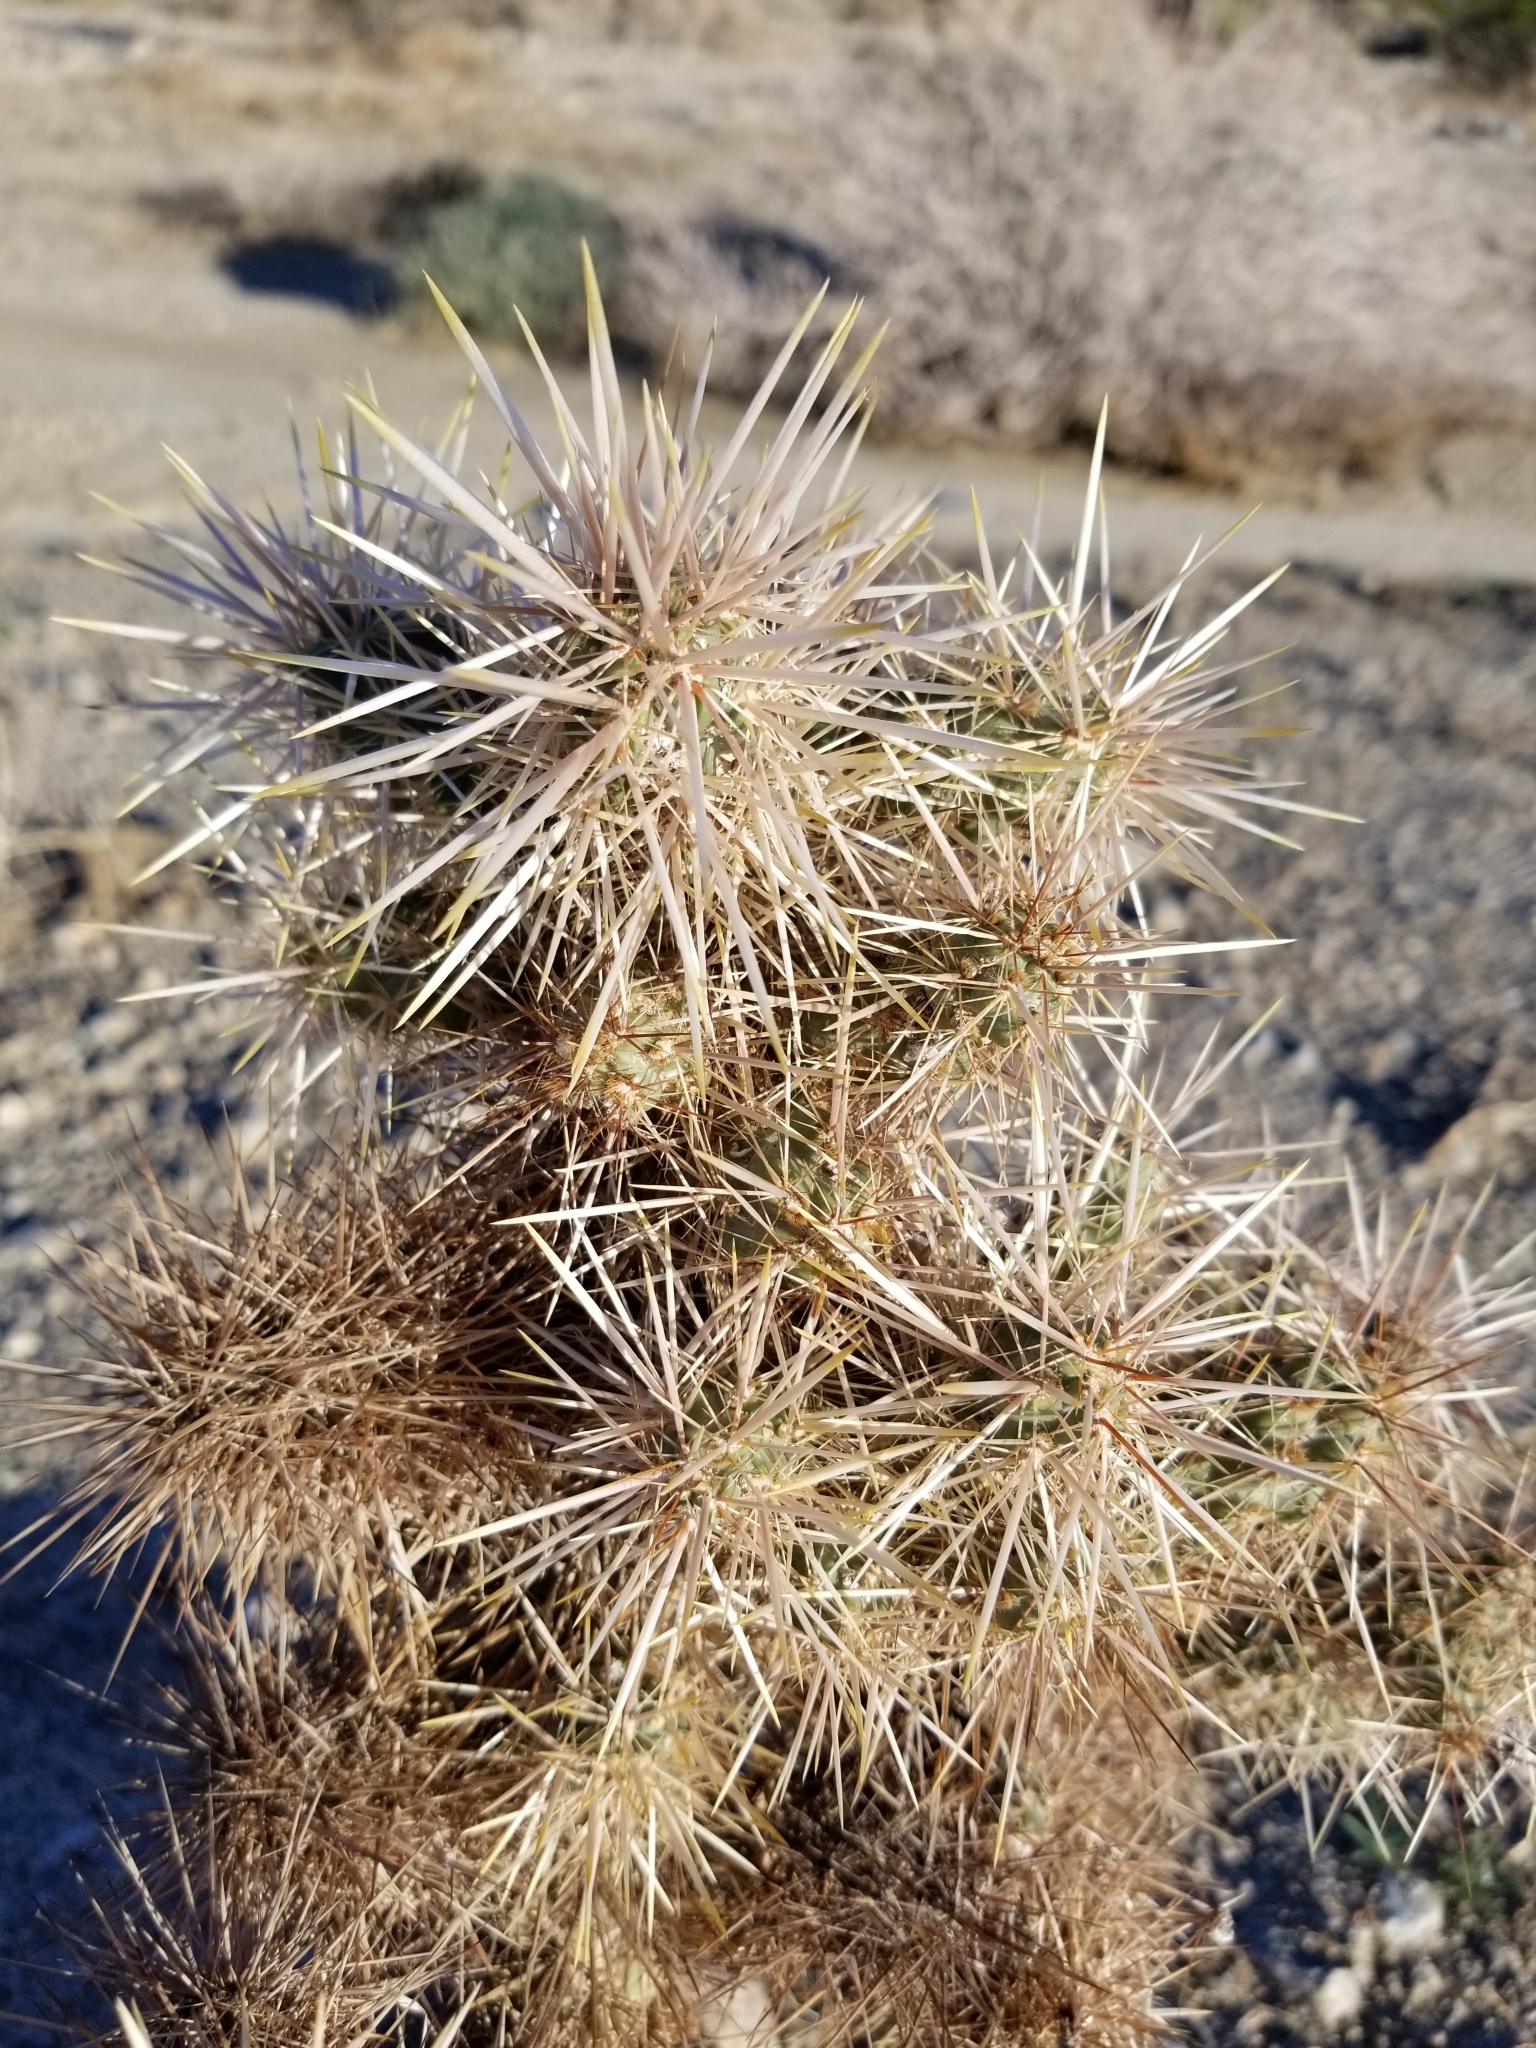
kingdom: Plantae
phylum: Tracheophyta
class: Magnoliopsida
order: Caryophyllales
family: Cactaceae
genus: Cylindropuntia
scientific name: Cylindropuntia echinocarpa
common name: Ground cholla
